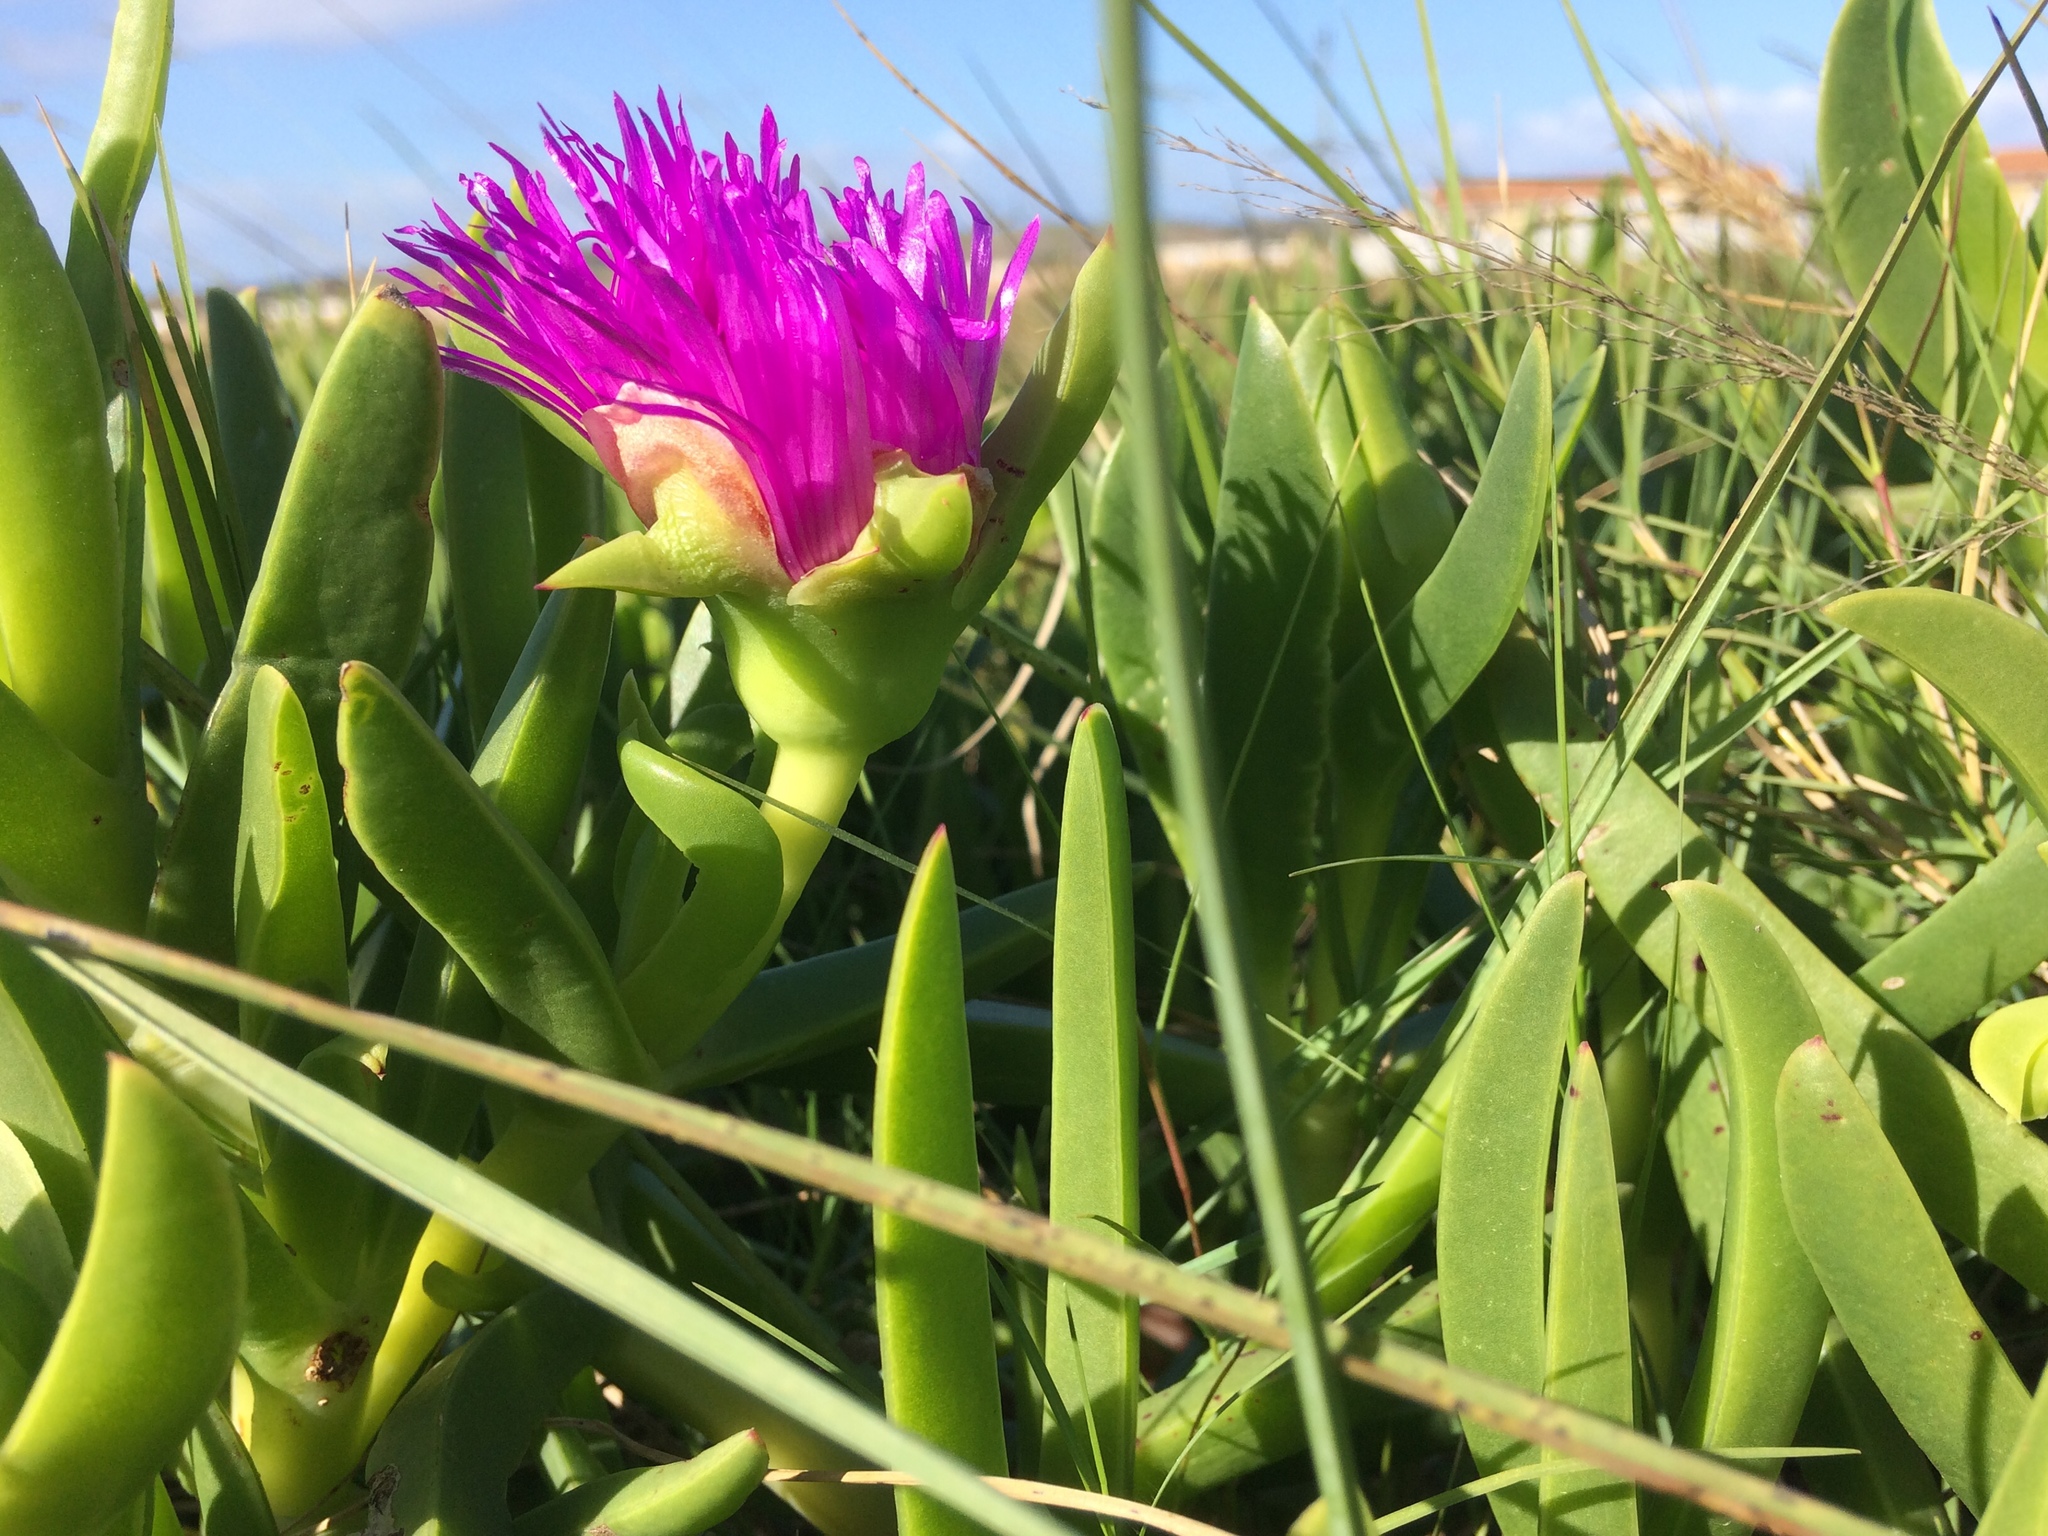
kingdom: Plantae
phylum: Tracheophyta
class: Magnoliopsida
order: Caryophyllales
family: Aizoaceae
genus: Carpobrotus
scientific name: Carpobrotus deliciosus
